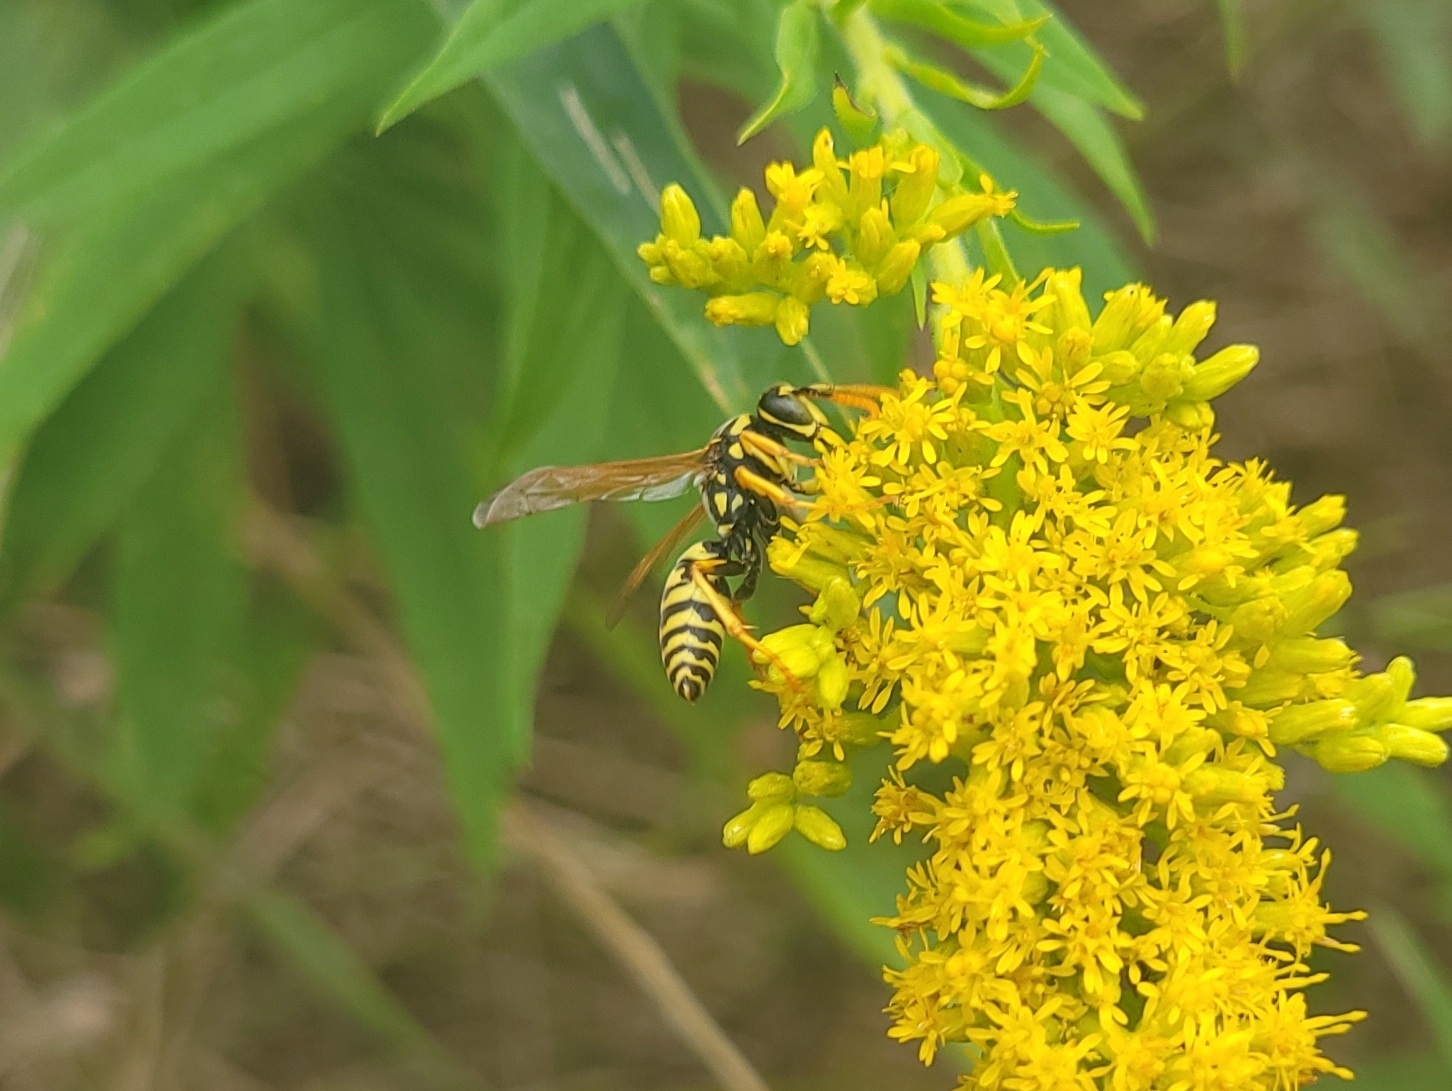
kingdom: Animalia
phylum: Arthropoda
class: Insecta
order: Hymenoptera
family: Eumenidae
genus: Polistes
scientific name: Polistes dominula
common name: Paper wasp
